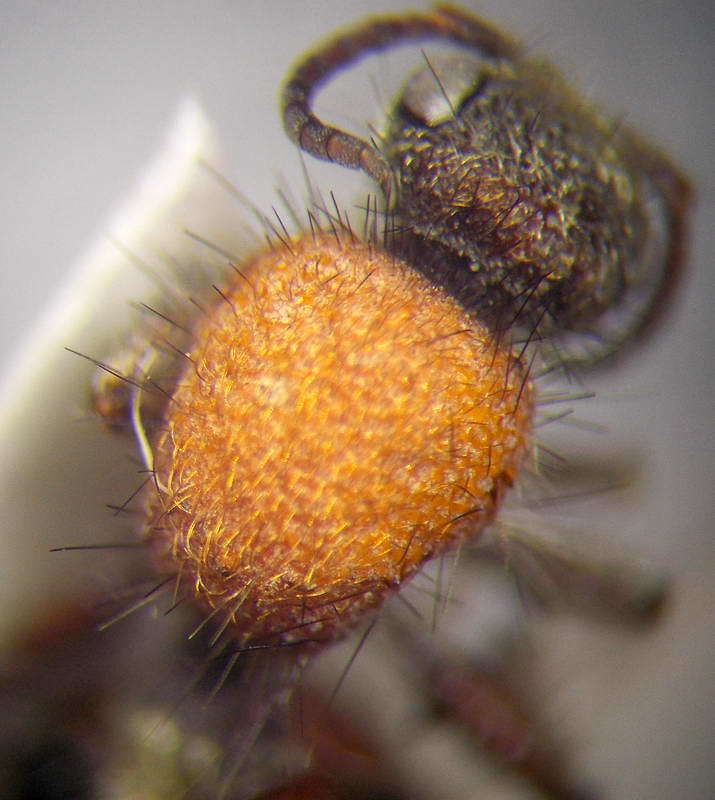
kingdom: Animalia
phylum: Arthropoda
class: Insecta
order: Hymenoptera
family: Mutillidae
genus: Dasylabris
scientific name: Dasylabris maura
